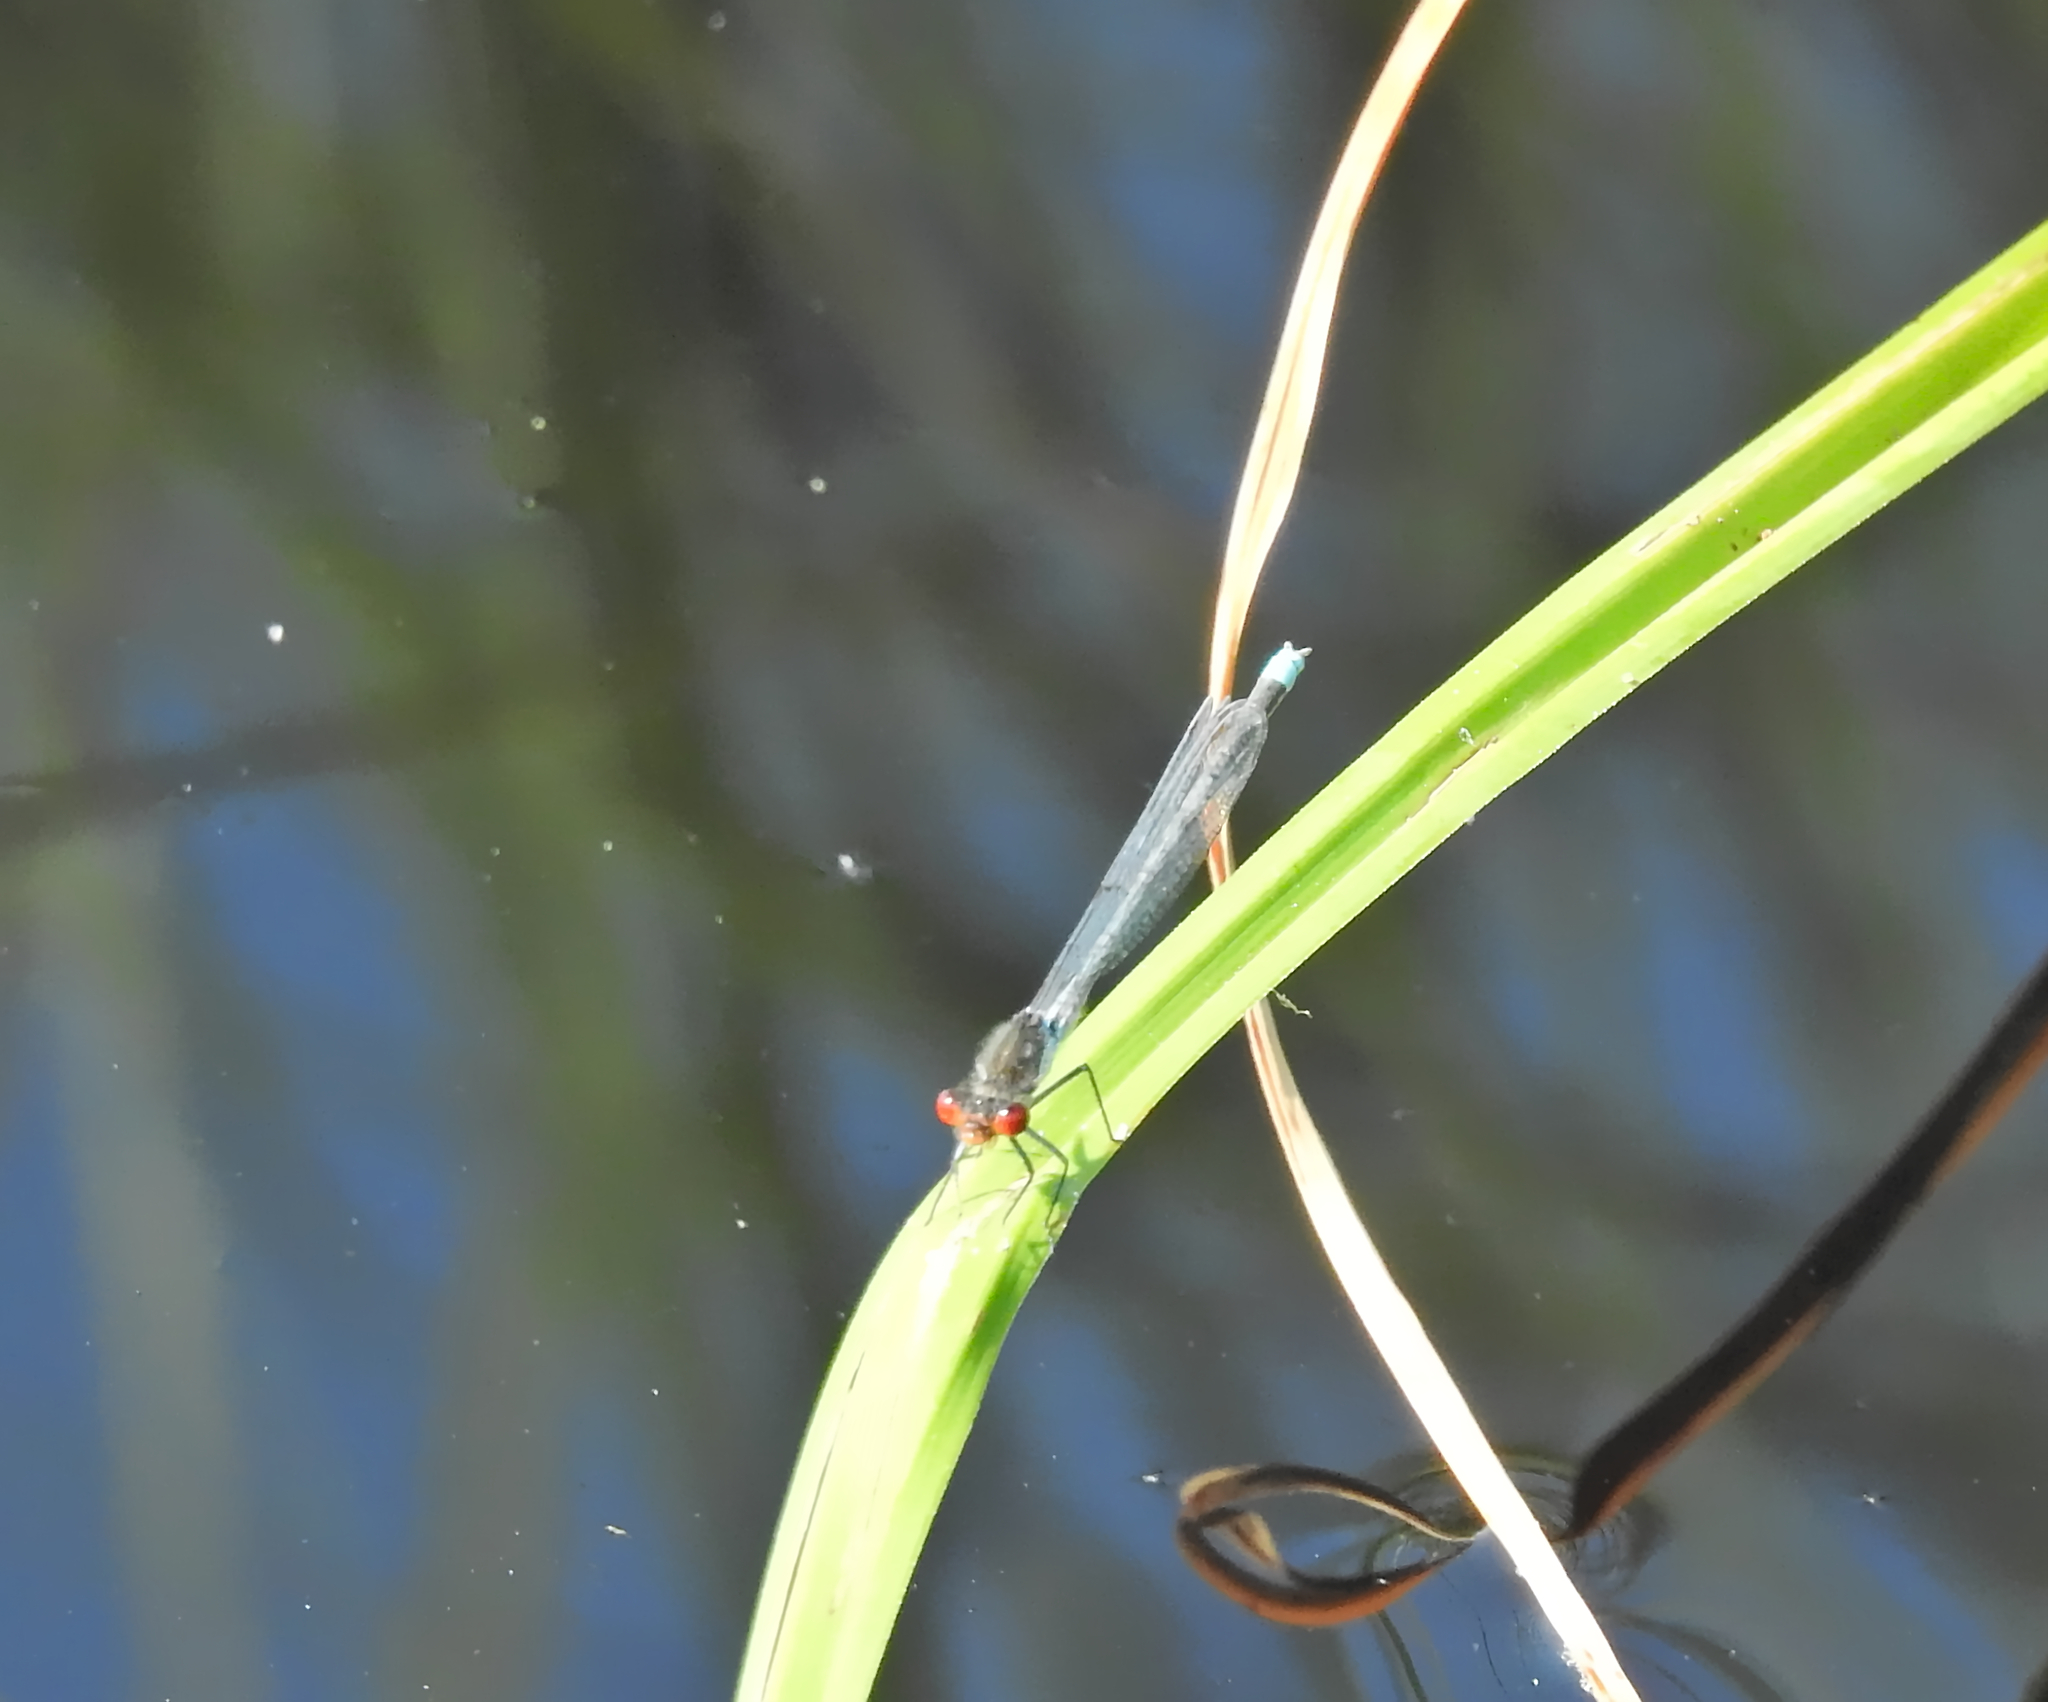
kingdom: Animalia
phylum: Arthropoda
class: Insecta
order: Odonata
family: Coenagrionidae
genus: Erythromma
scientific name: Erythromma najas
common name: Red-eyed damselfly
